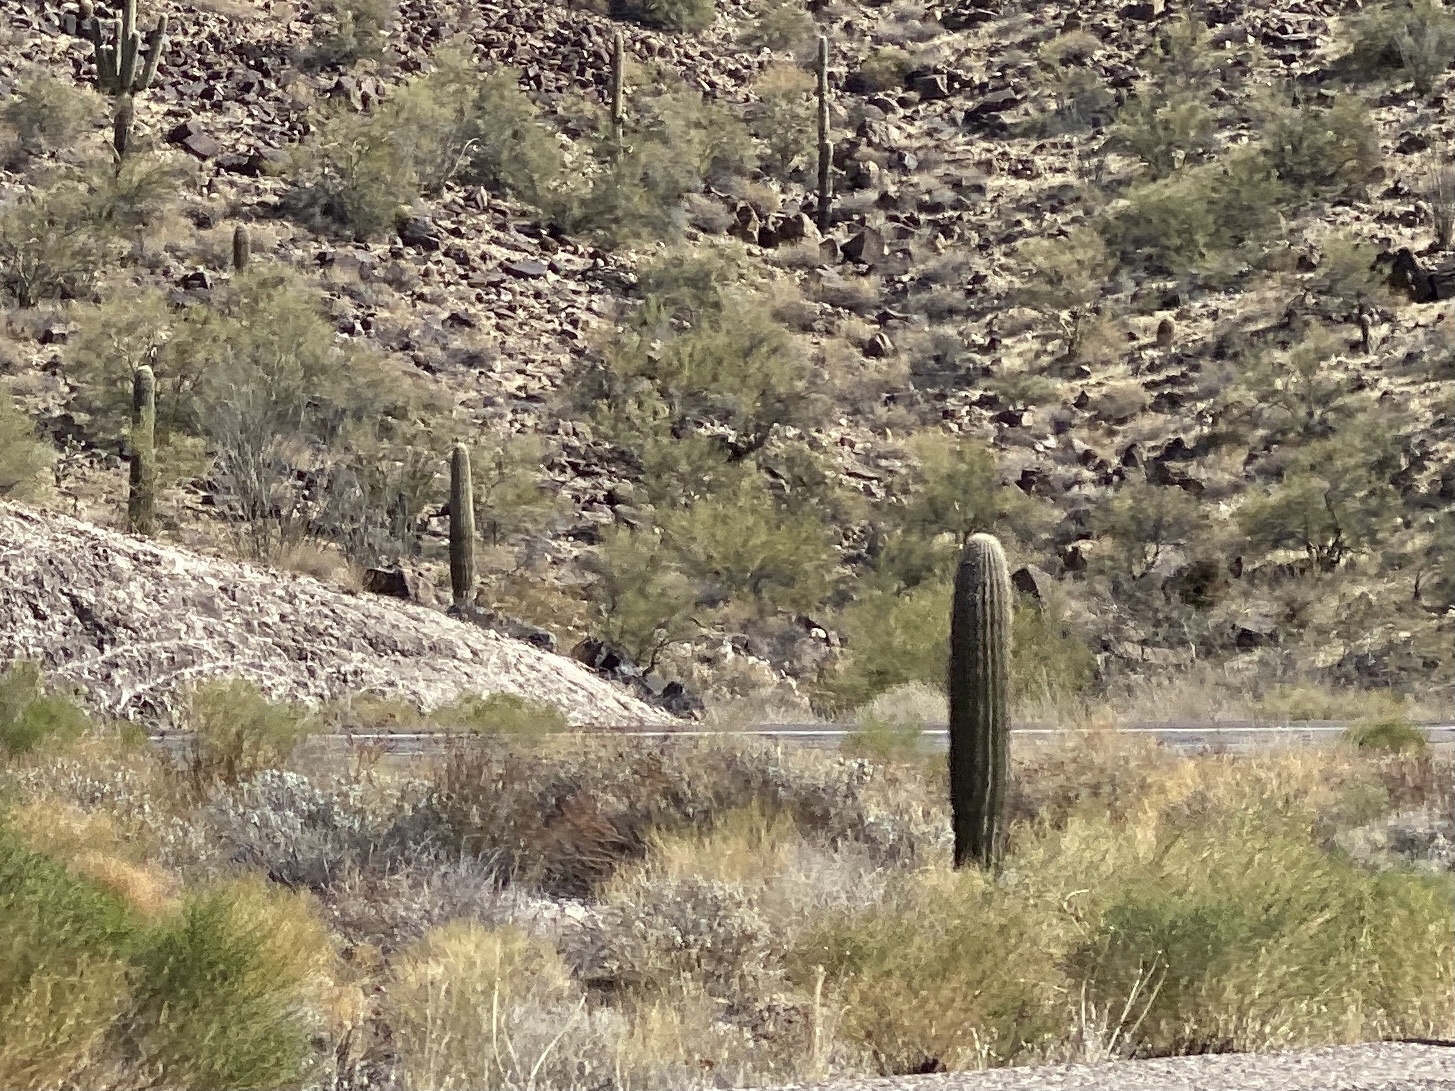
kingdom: Plantae
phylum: Tracheophyta
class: Magnoliopsida
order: Caryophyllales
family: Cactaceae
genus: Carnegiea
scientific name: Carnegiea gigantea
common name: Saguaro
